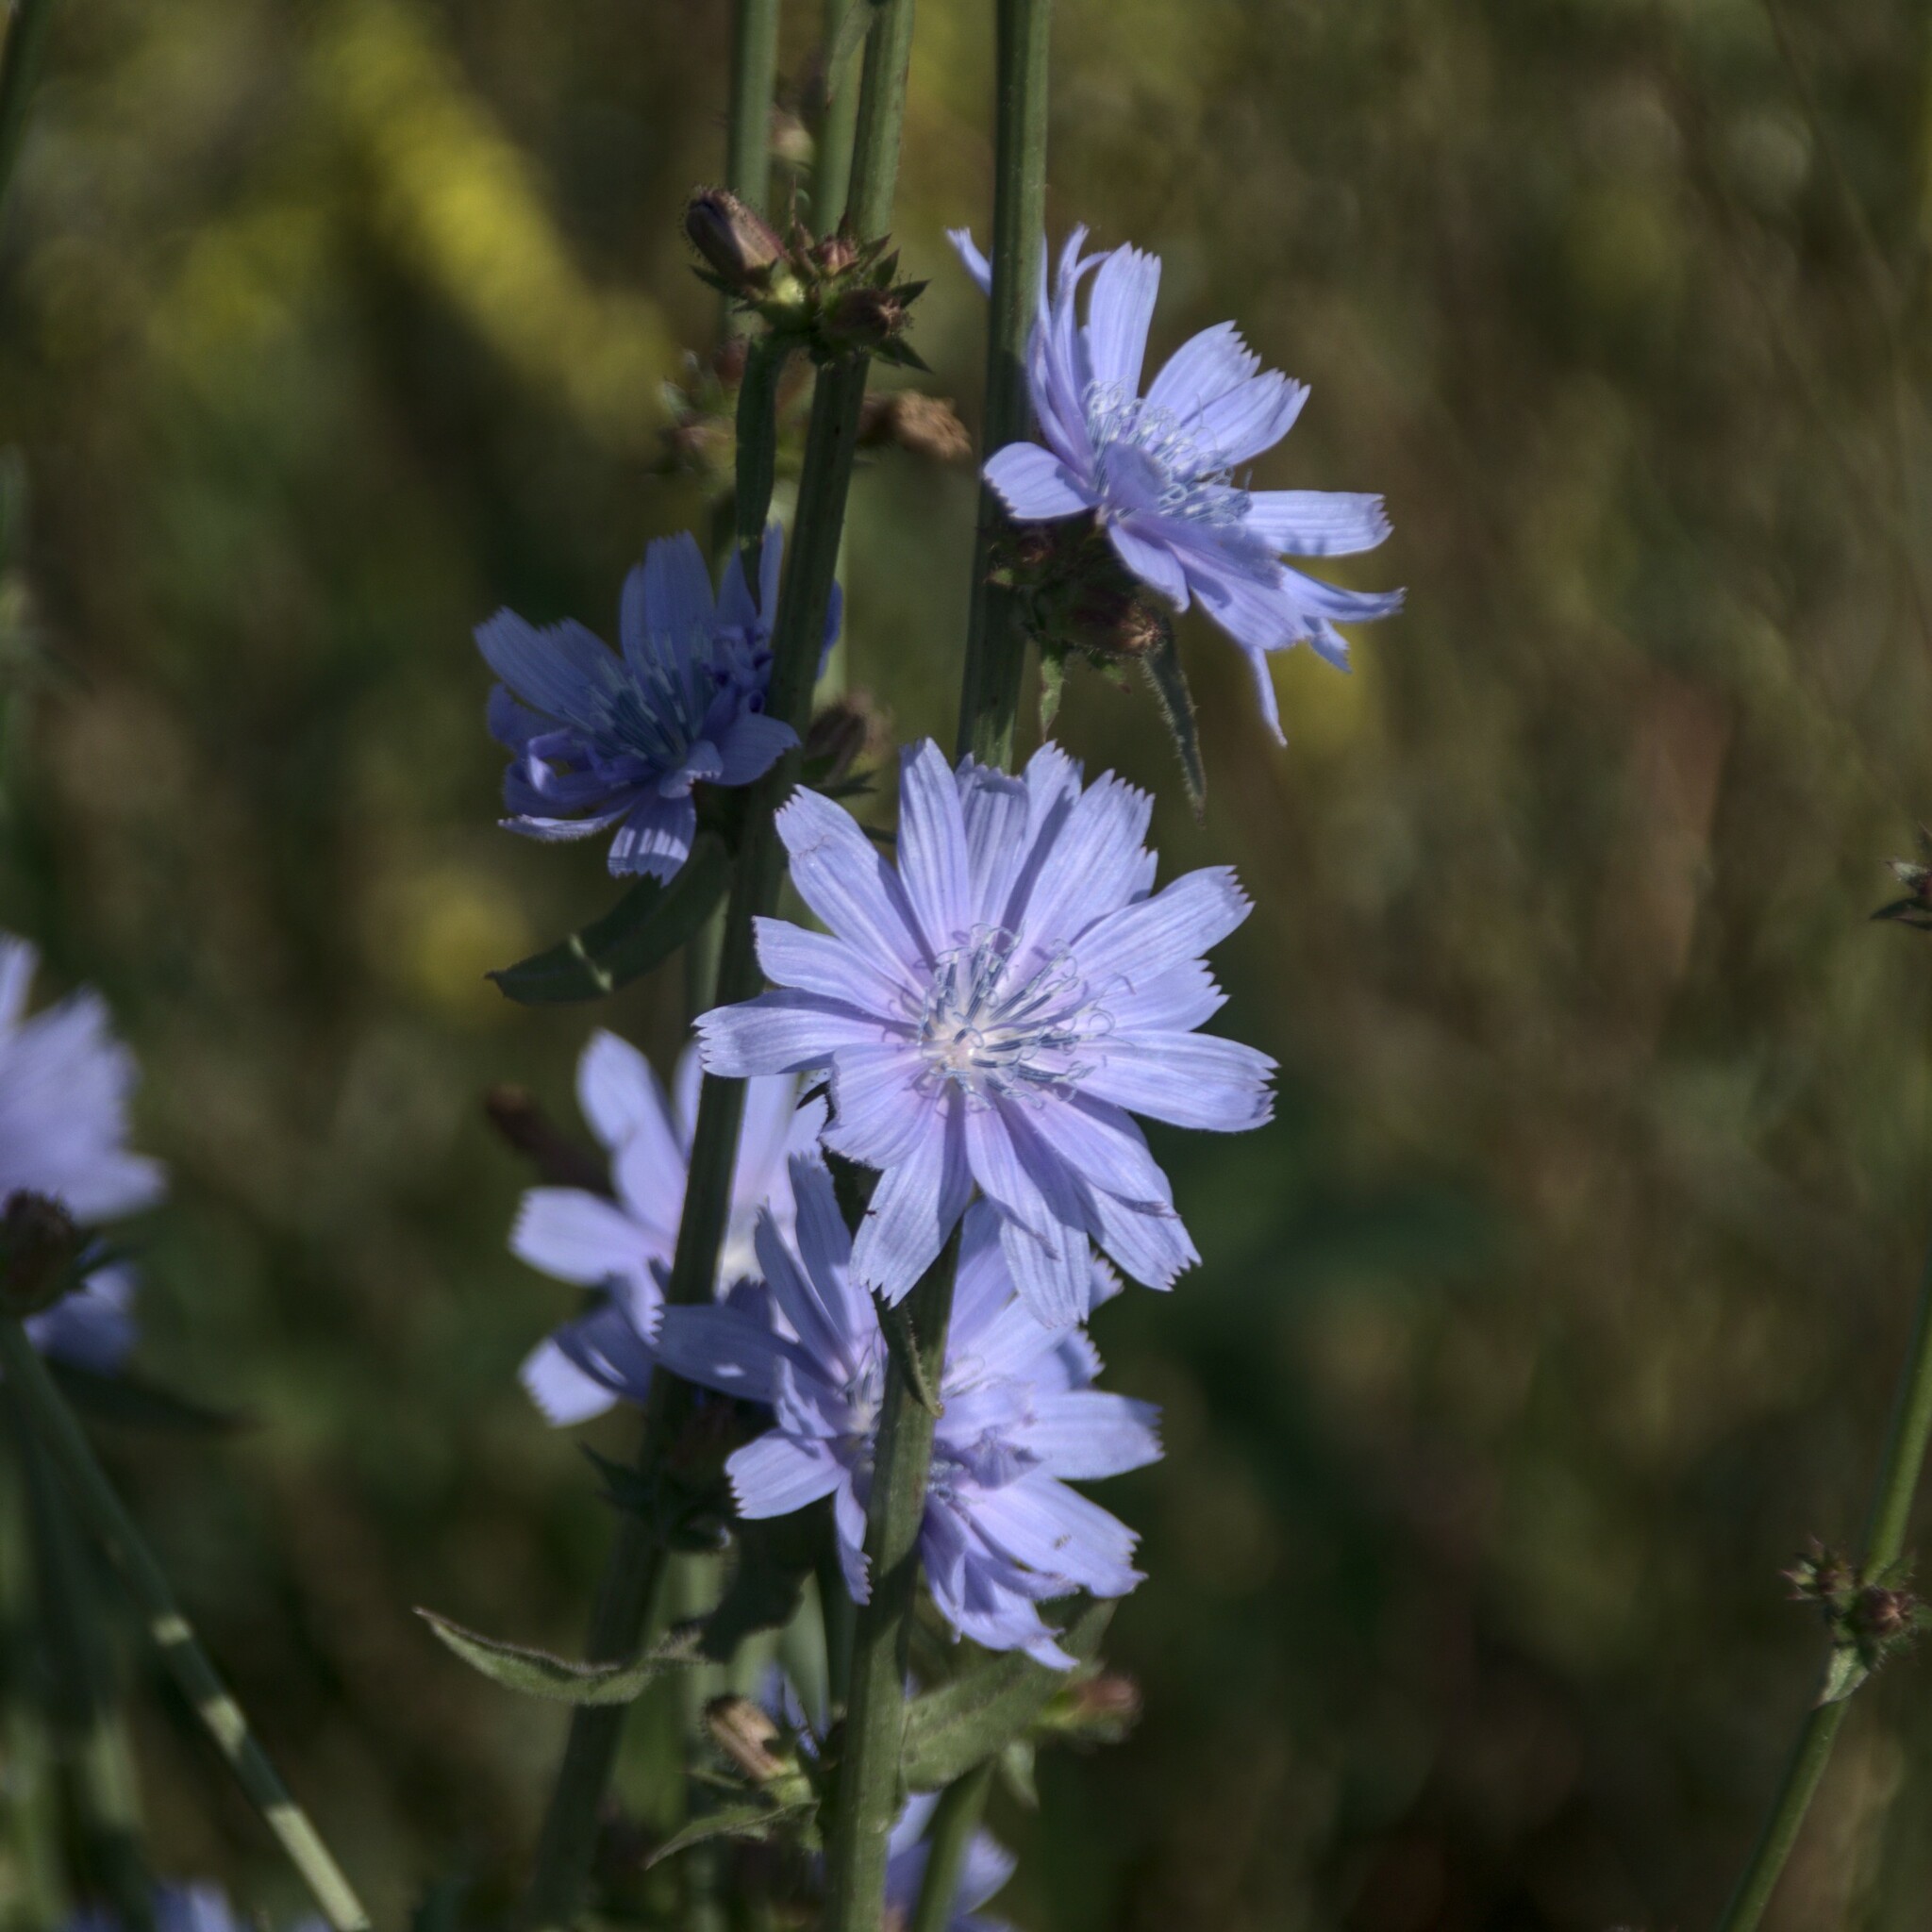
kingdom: Plantae
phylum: Tracheophyta
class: Magnoliopsida
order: Asterales
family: Asteraceae
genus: Cichorium
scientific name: Cichorium intybus
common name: Chicory
